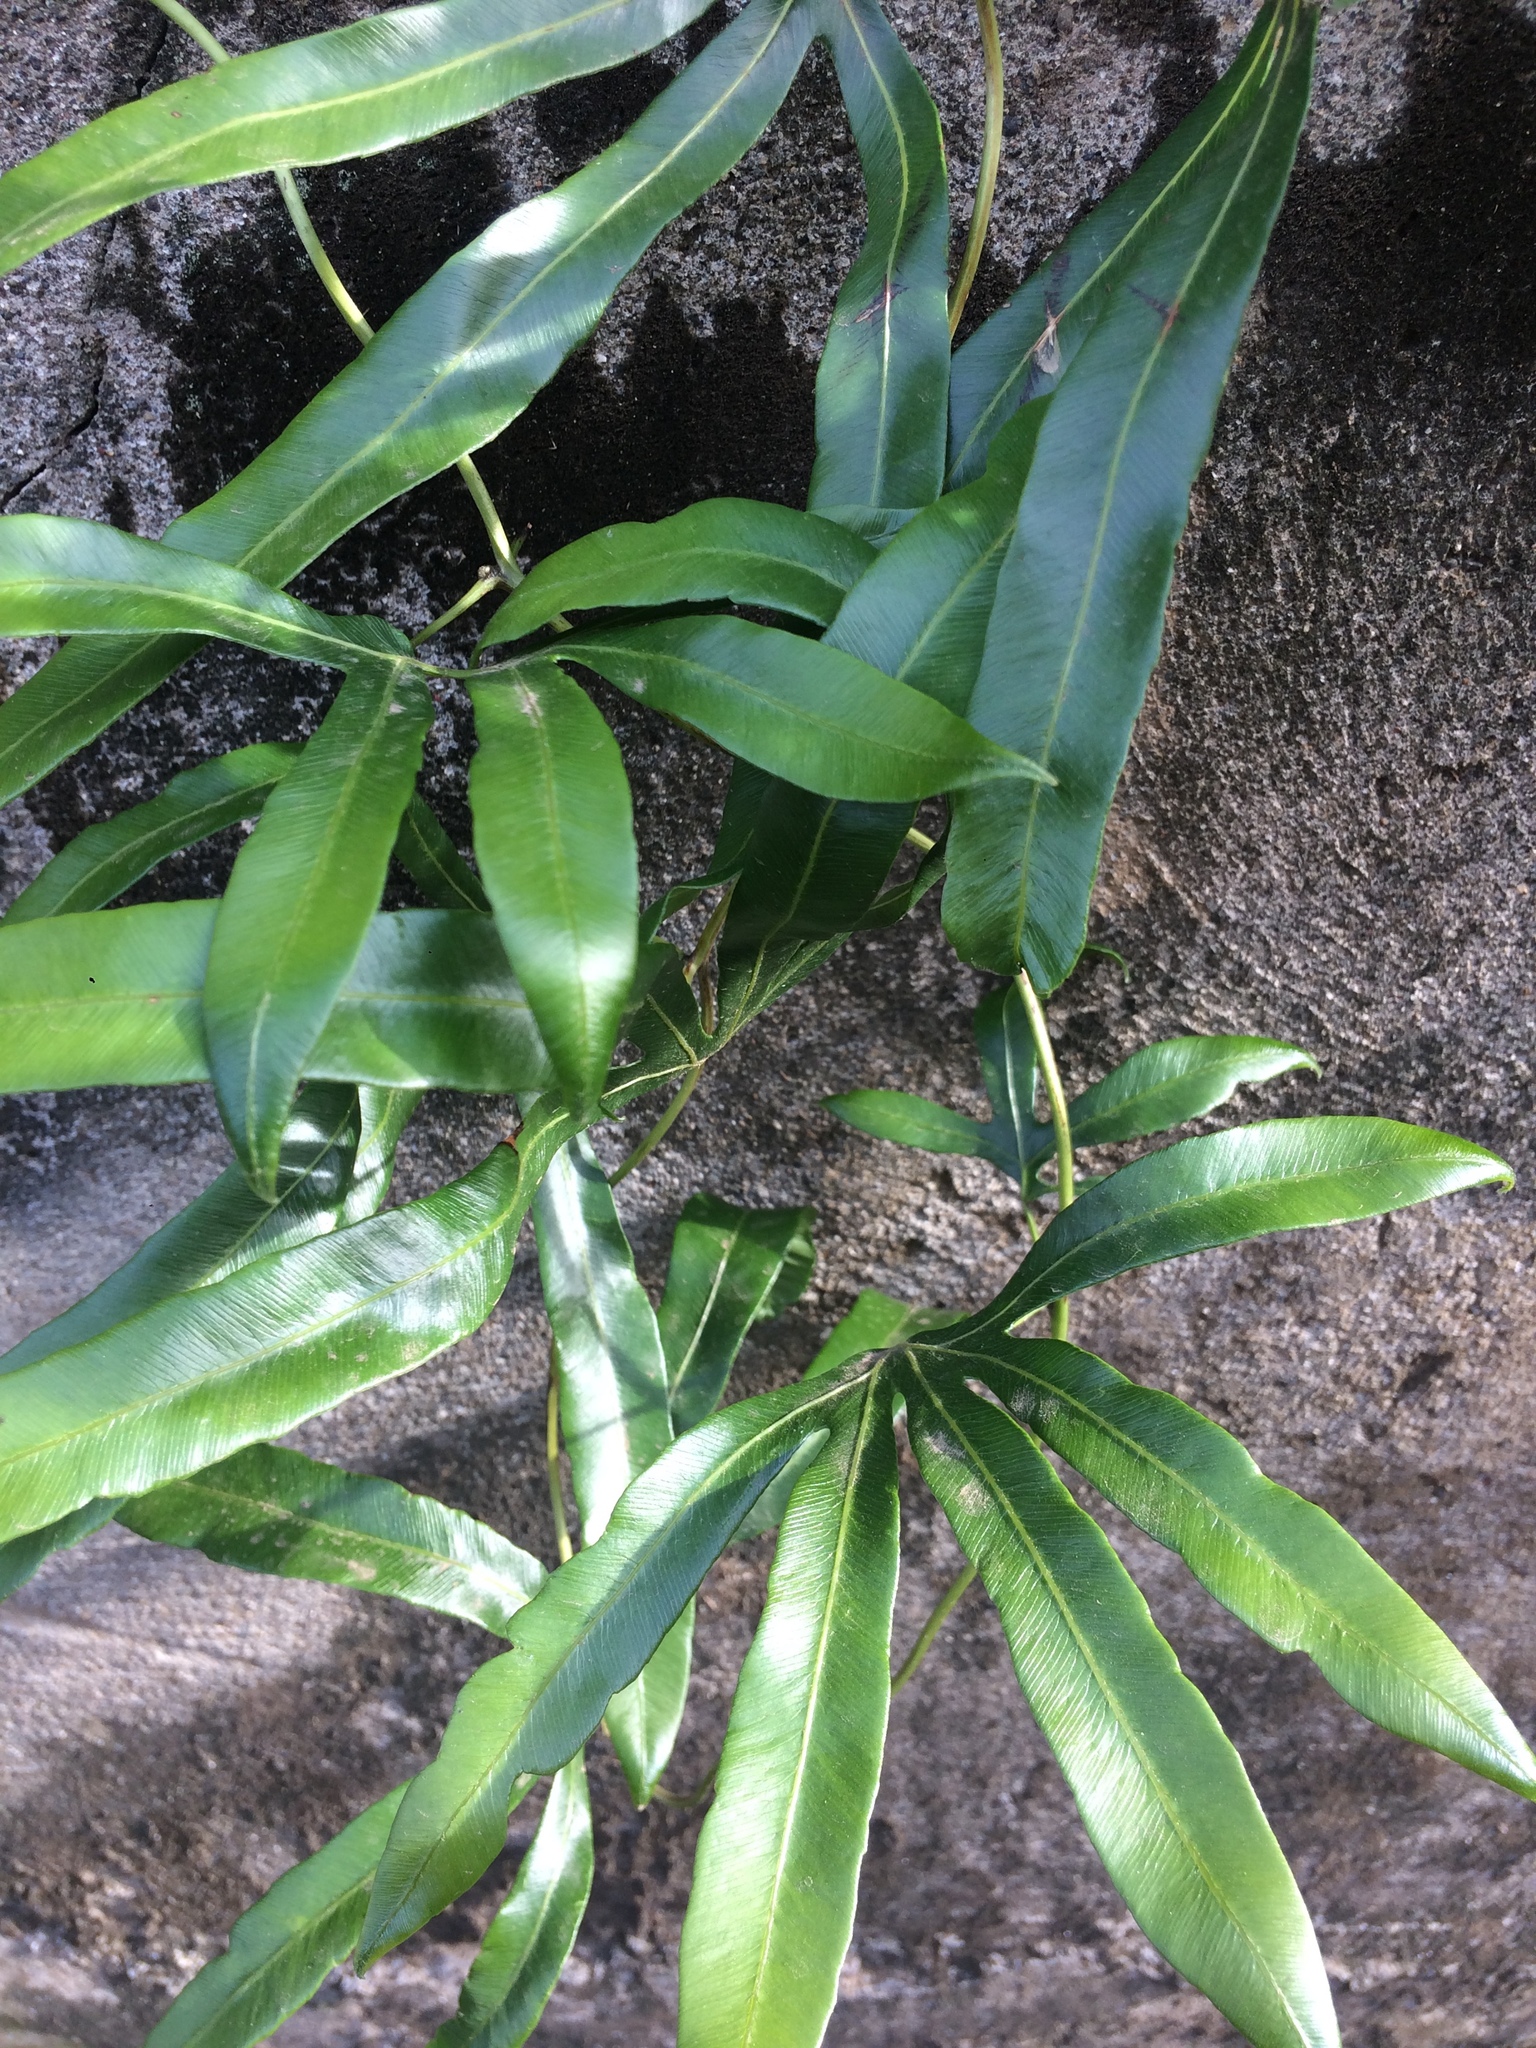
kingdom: Plantae
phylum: Tracheophyta
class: Polypodiopsida
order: Schizaeales
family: Lygodiaceae
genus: Lygodium
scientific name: Lygodium circinnatum
